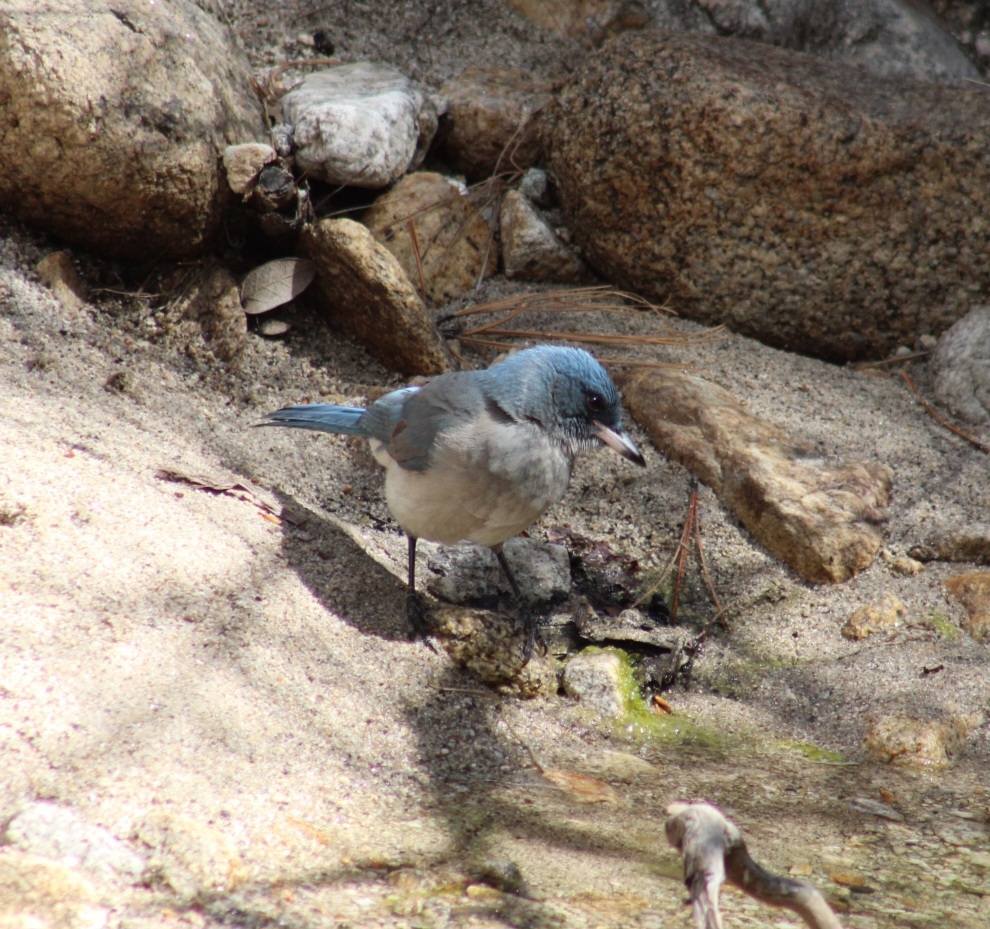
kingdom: Animalia
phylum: Chordata
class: Aves
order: Passeriformes
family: Corvidae
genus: Aphelocoma
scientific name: Aphelocoma wollweberi
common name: Mexican jay
